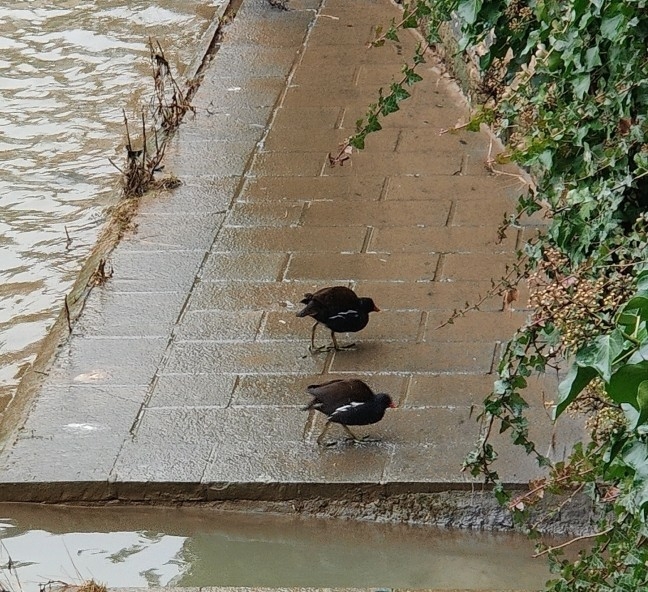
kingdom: Animalia
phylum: Chordata
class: Aves
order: Gruiformes
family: Rallidae
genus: Gallinula
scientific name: Gallinula chloropus
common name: Common moorhen
